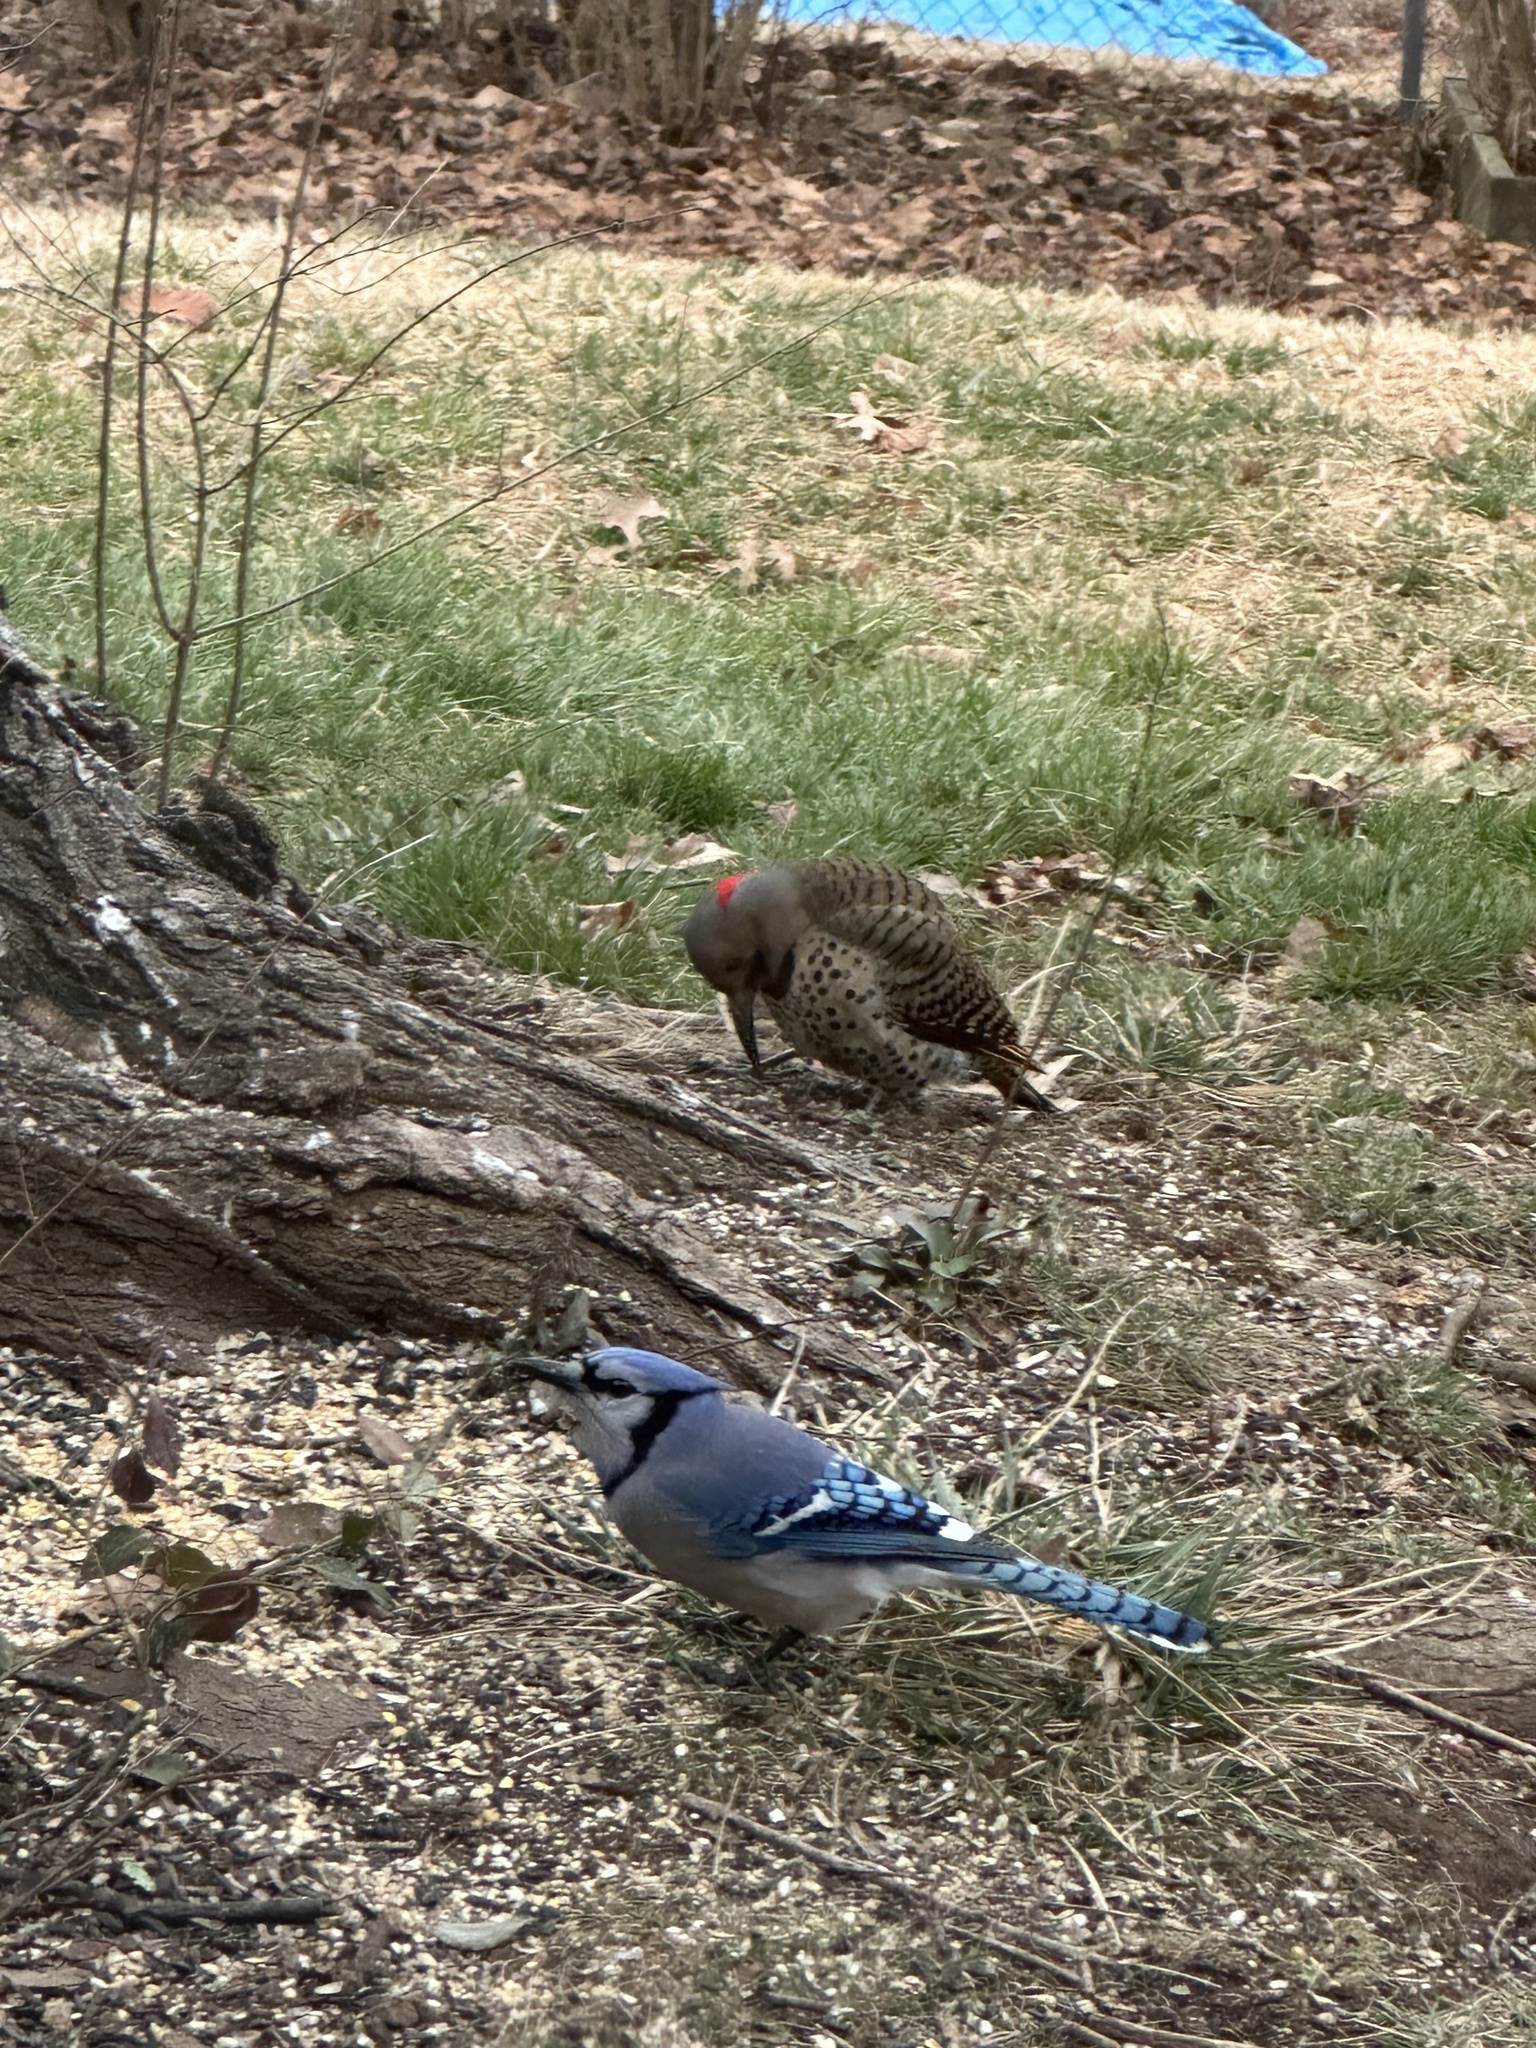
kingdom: Animalia
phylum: Chordata
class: Aves
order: Piciformes
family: Picidae
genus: Colaptes
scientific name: Colaptes auratus
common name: Northern flicker
